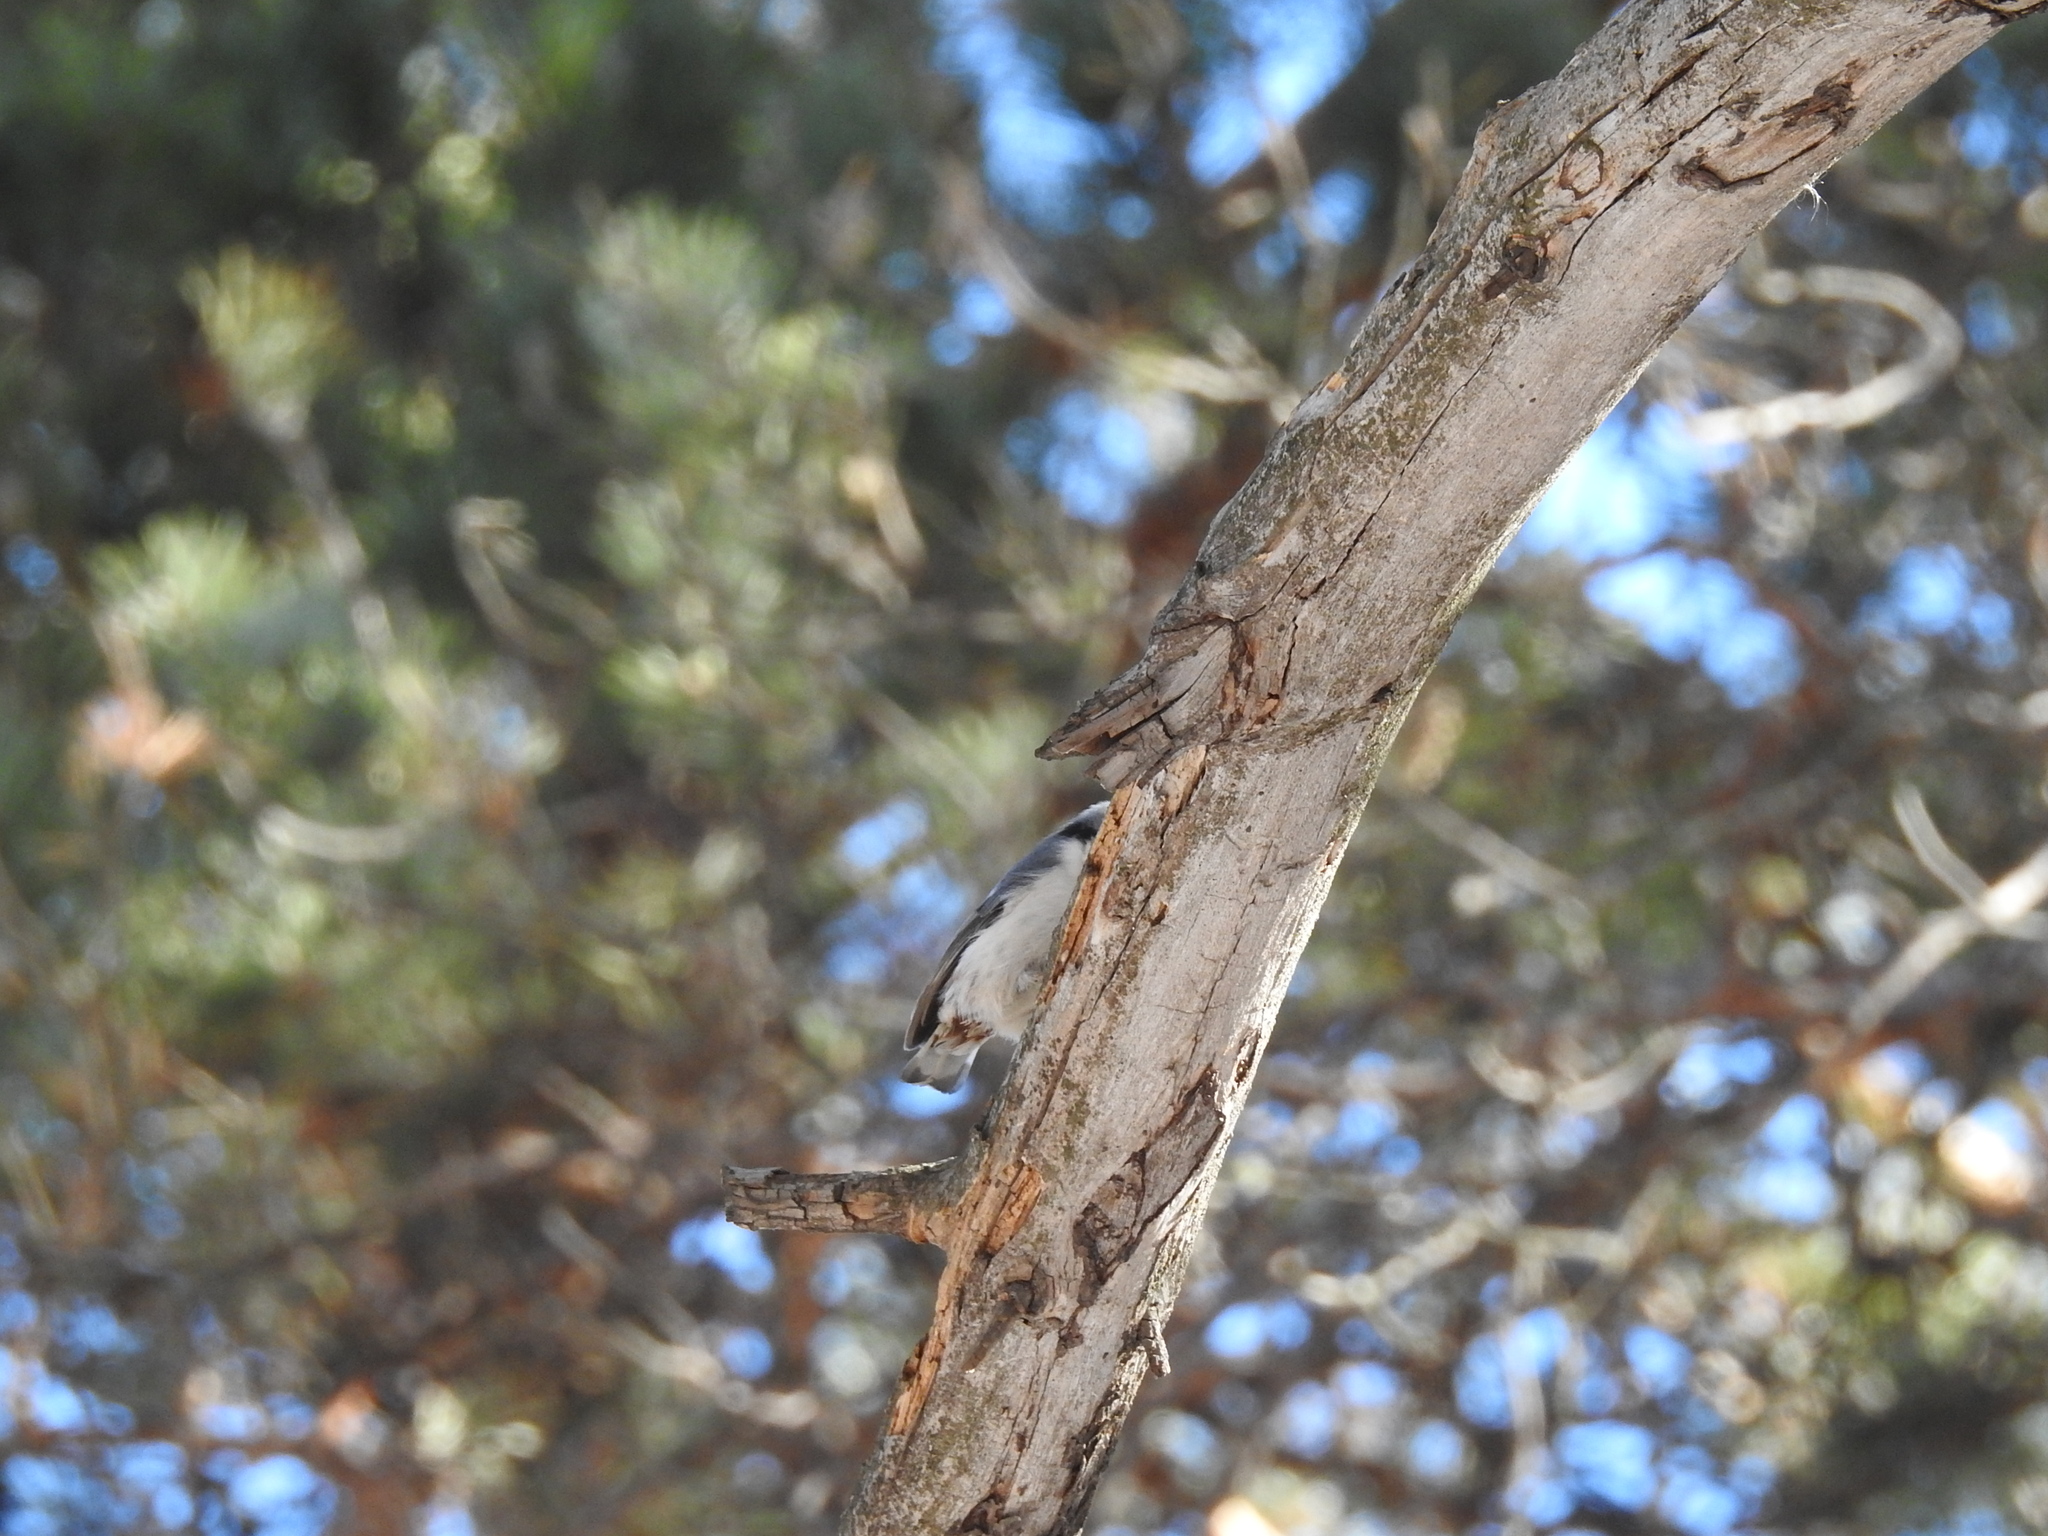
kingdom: Animalia
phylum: Chordata
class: Aves
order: Passeriformes
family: Sittidae
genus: Sitta
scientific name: Sitta europaea
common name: Eurasian nuthatch
